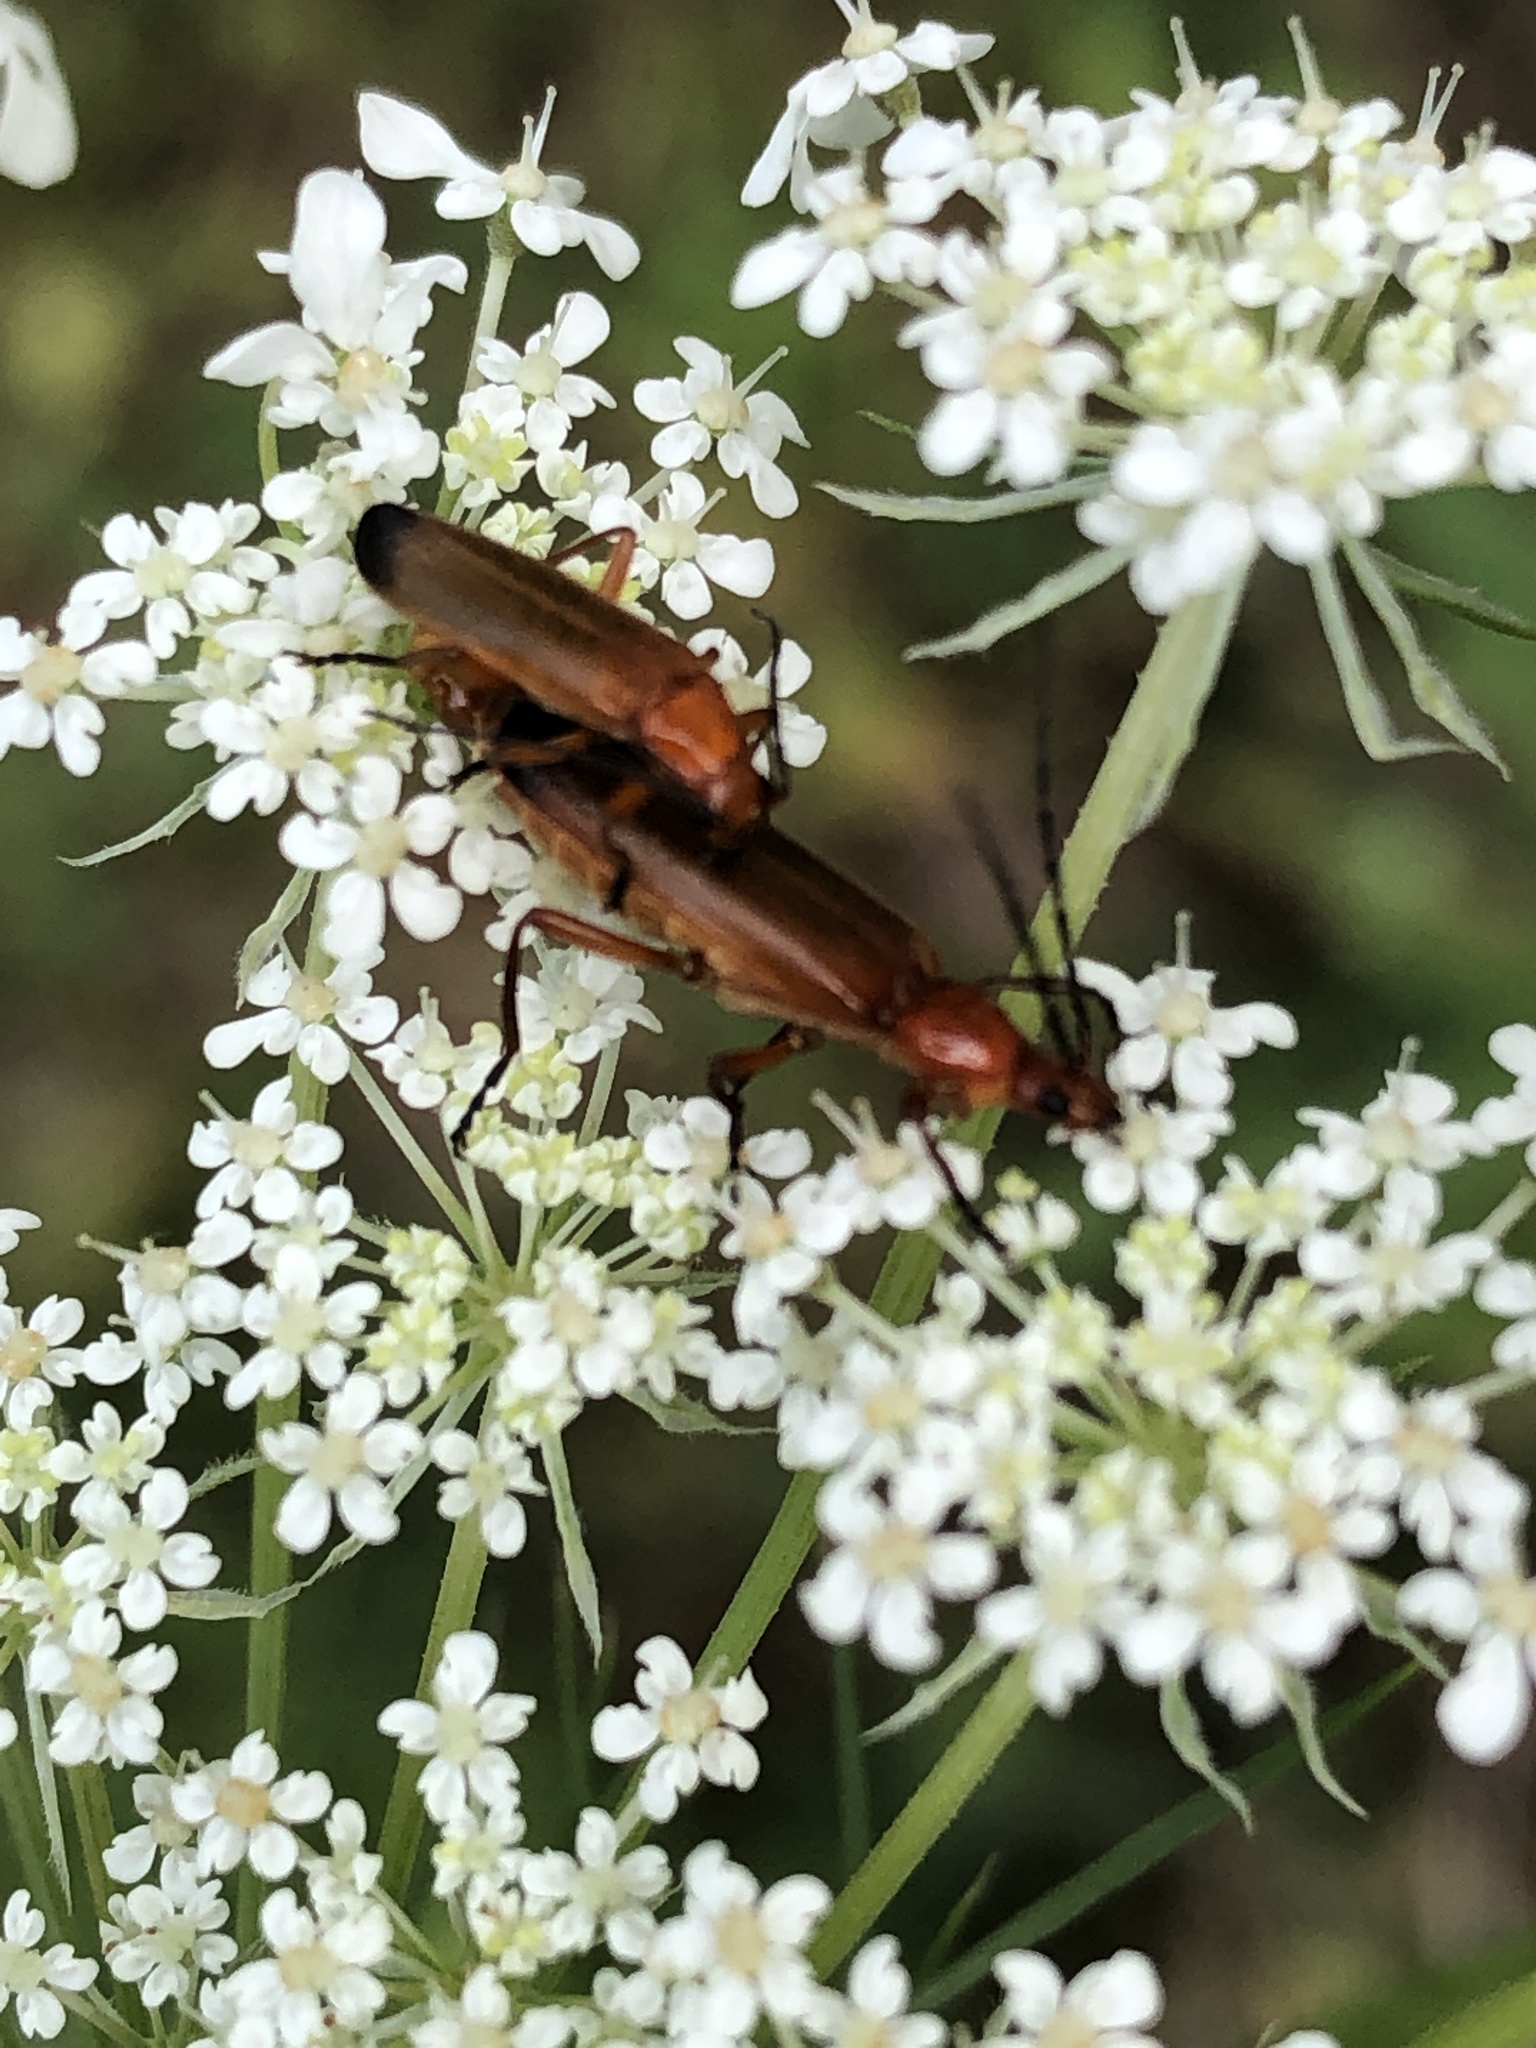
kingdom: Animalia
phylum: Arthropoda
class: Insecta
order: Coleoptera
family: Cantharidae
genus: Rhagonycha
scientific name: Rhagonycha fulva
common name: Common red soldier beetle
